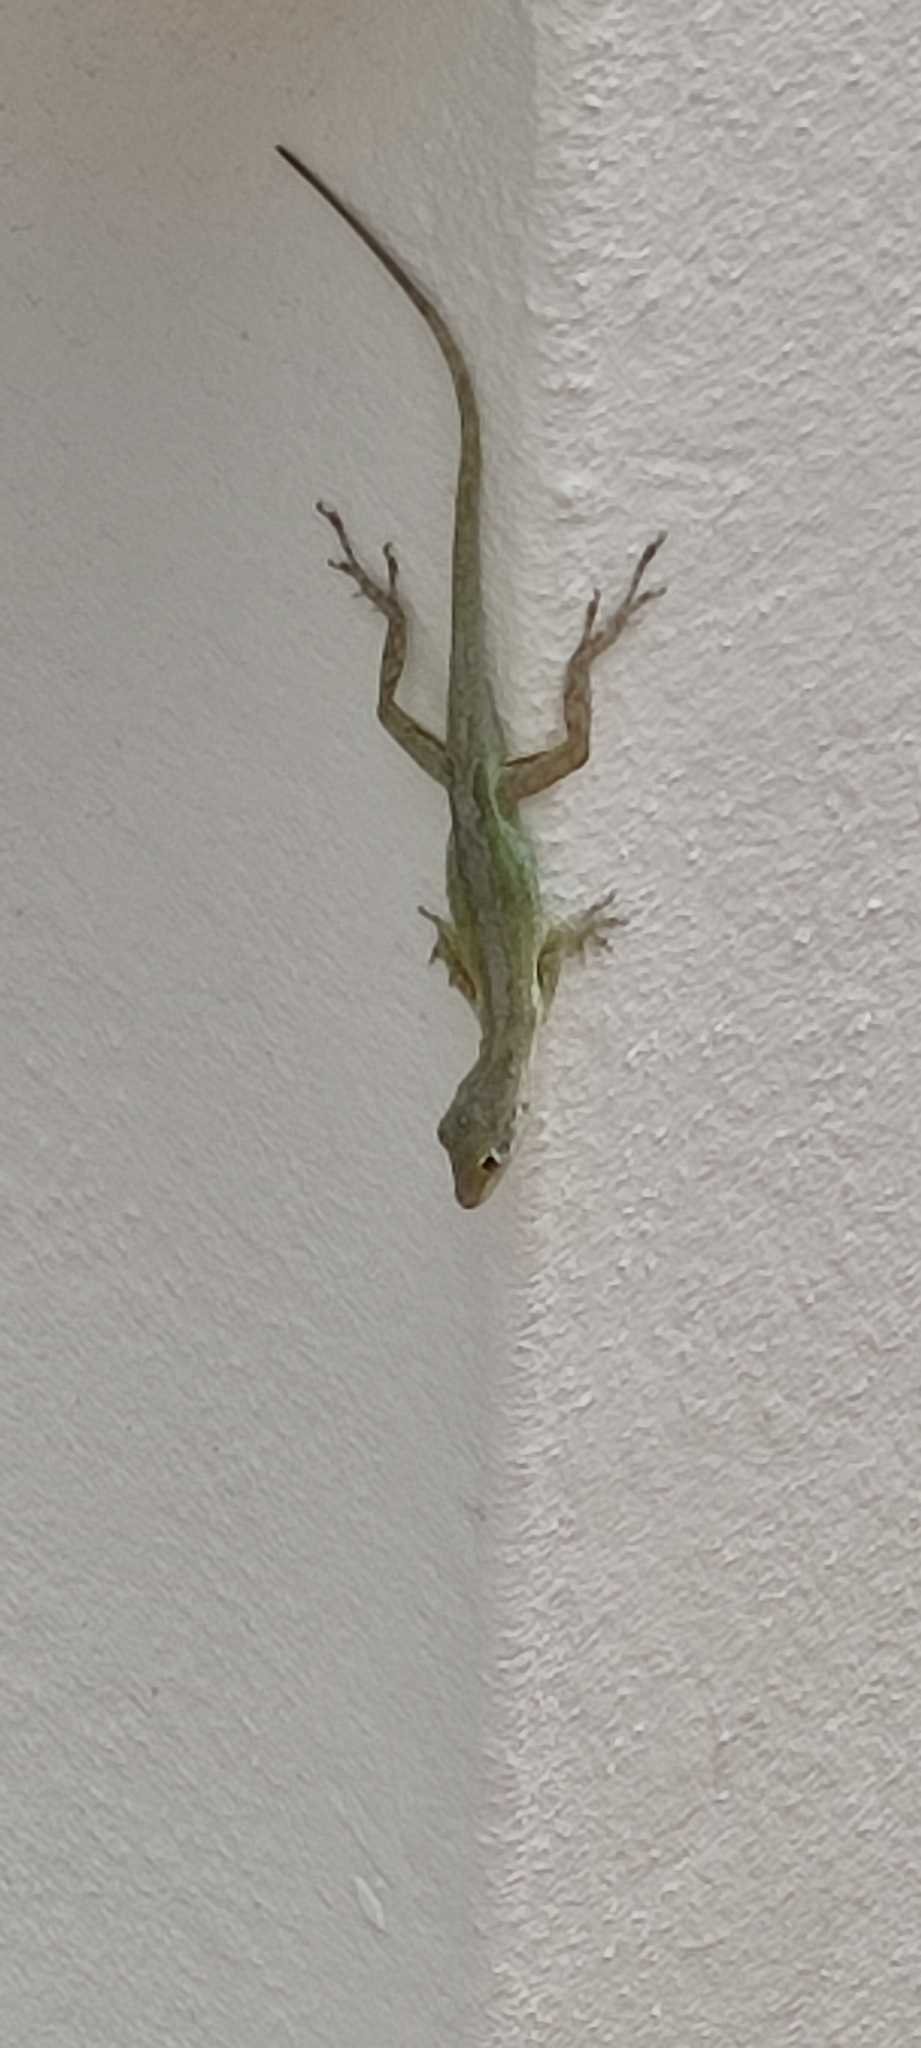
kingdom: Animalia
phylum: Chordata
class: Squamata
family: Dactyloidae
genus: Anolis
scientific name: Anolis lividus
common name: Montserrat anole
